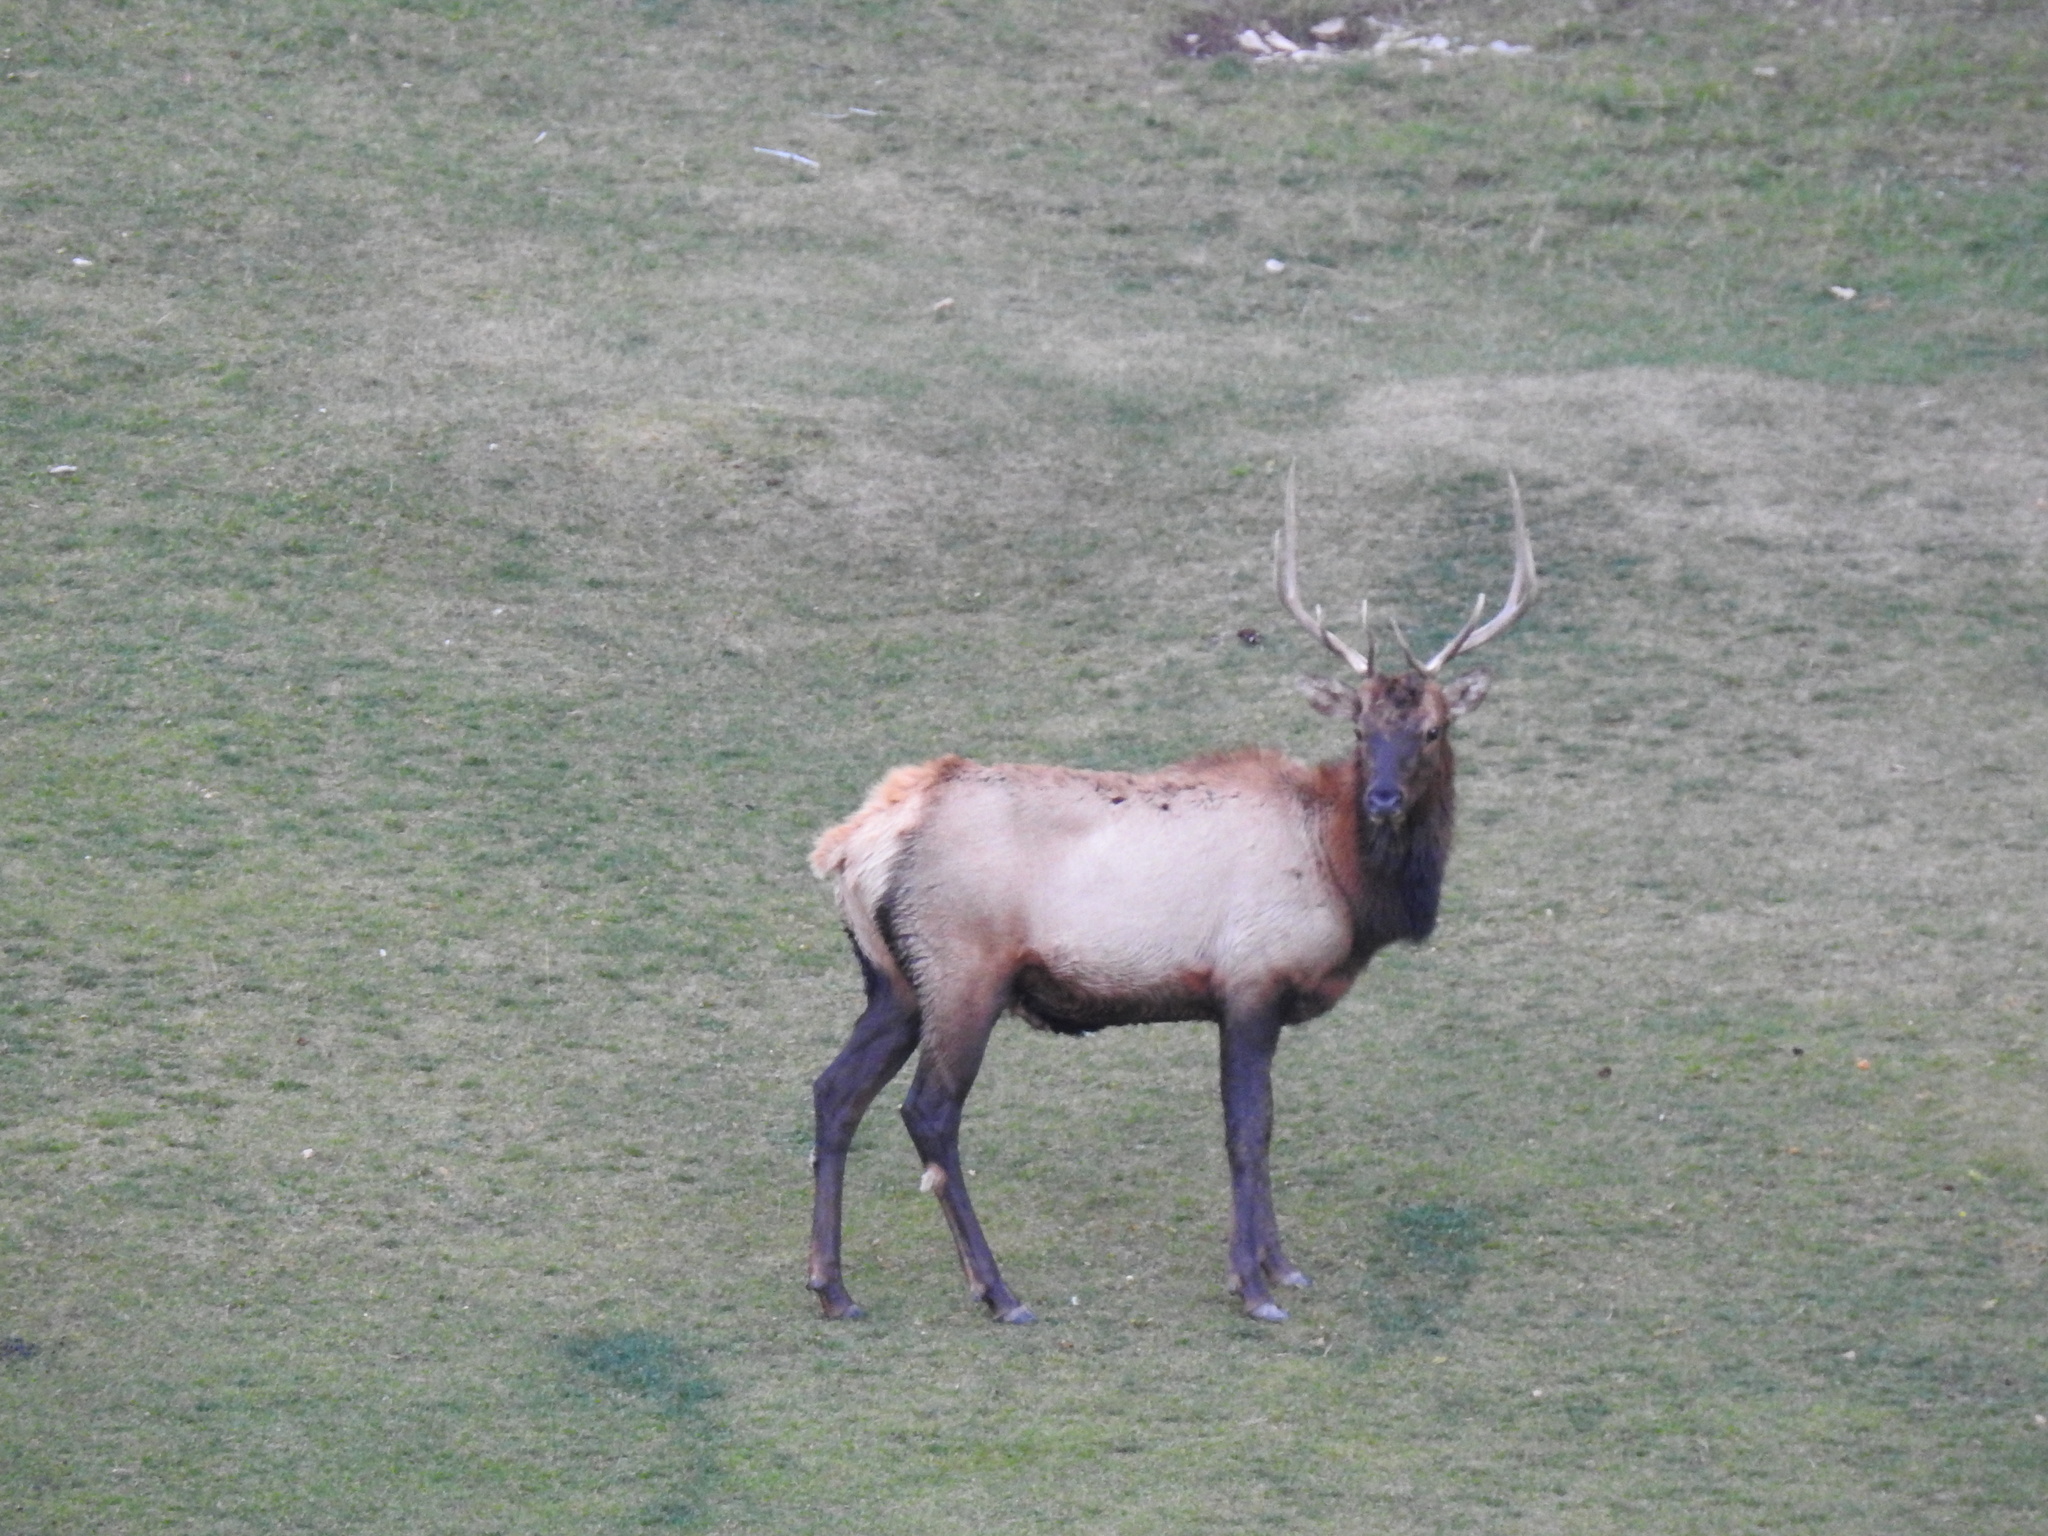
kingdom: Animalia
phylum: Chordata
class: Mammalia
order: Artiodactyla
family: Cervidae
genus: Cervus
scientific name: Cervus elaphus
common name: Red deer
